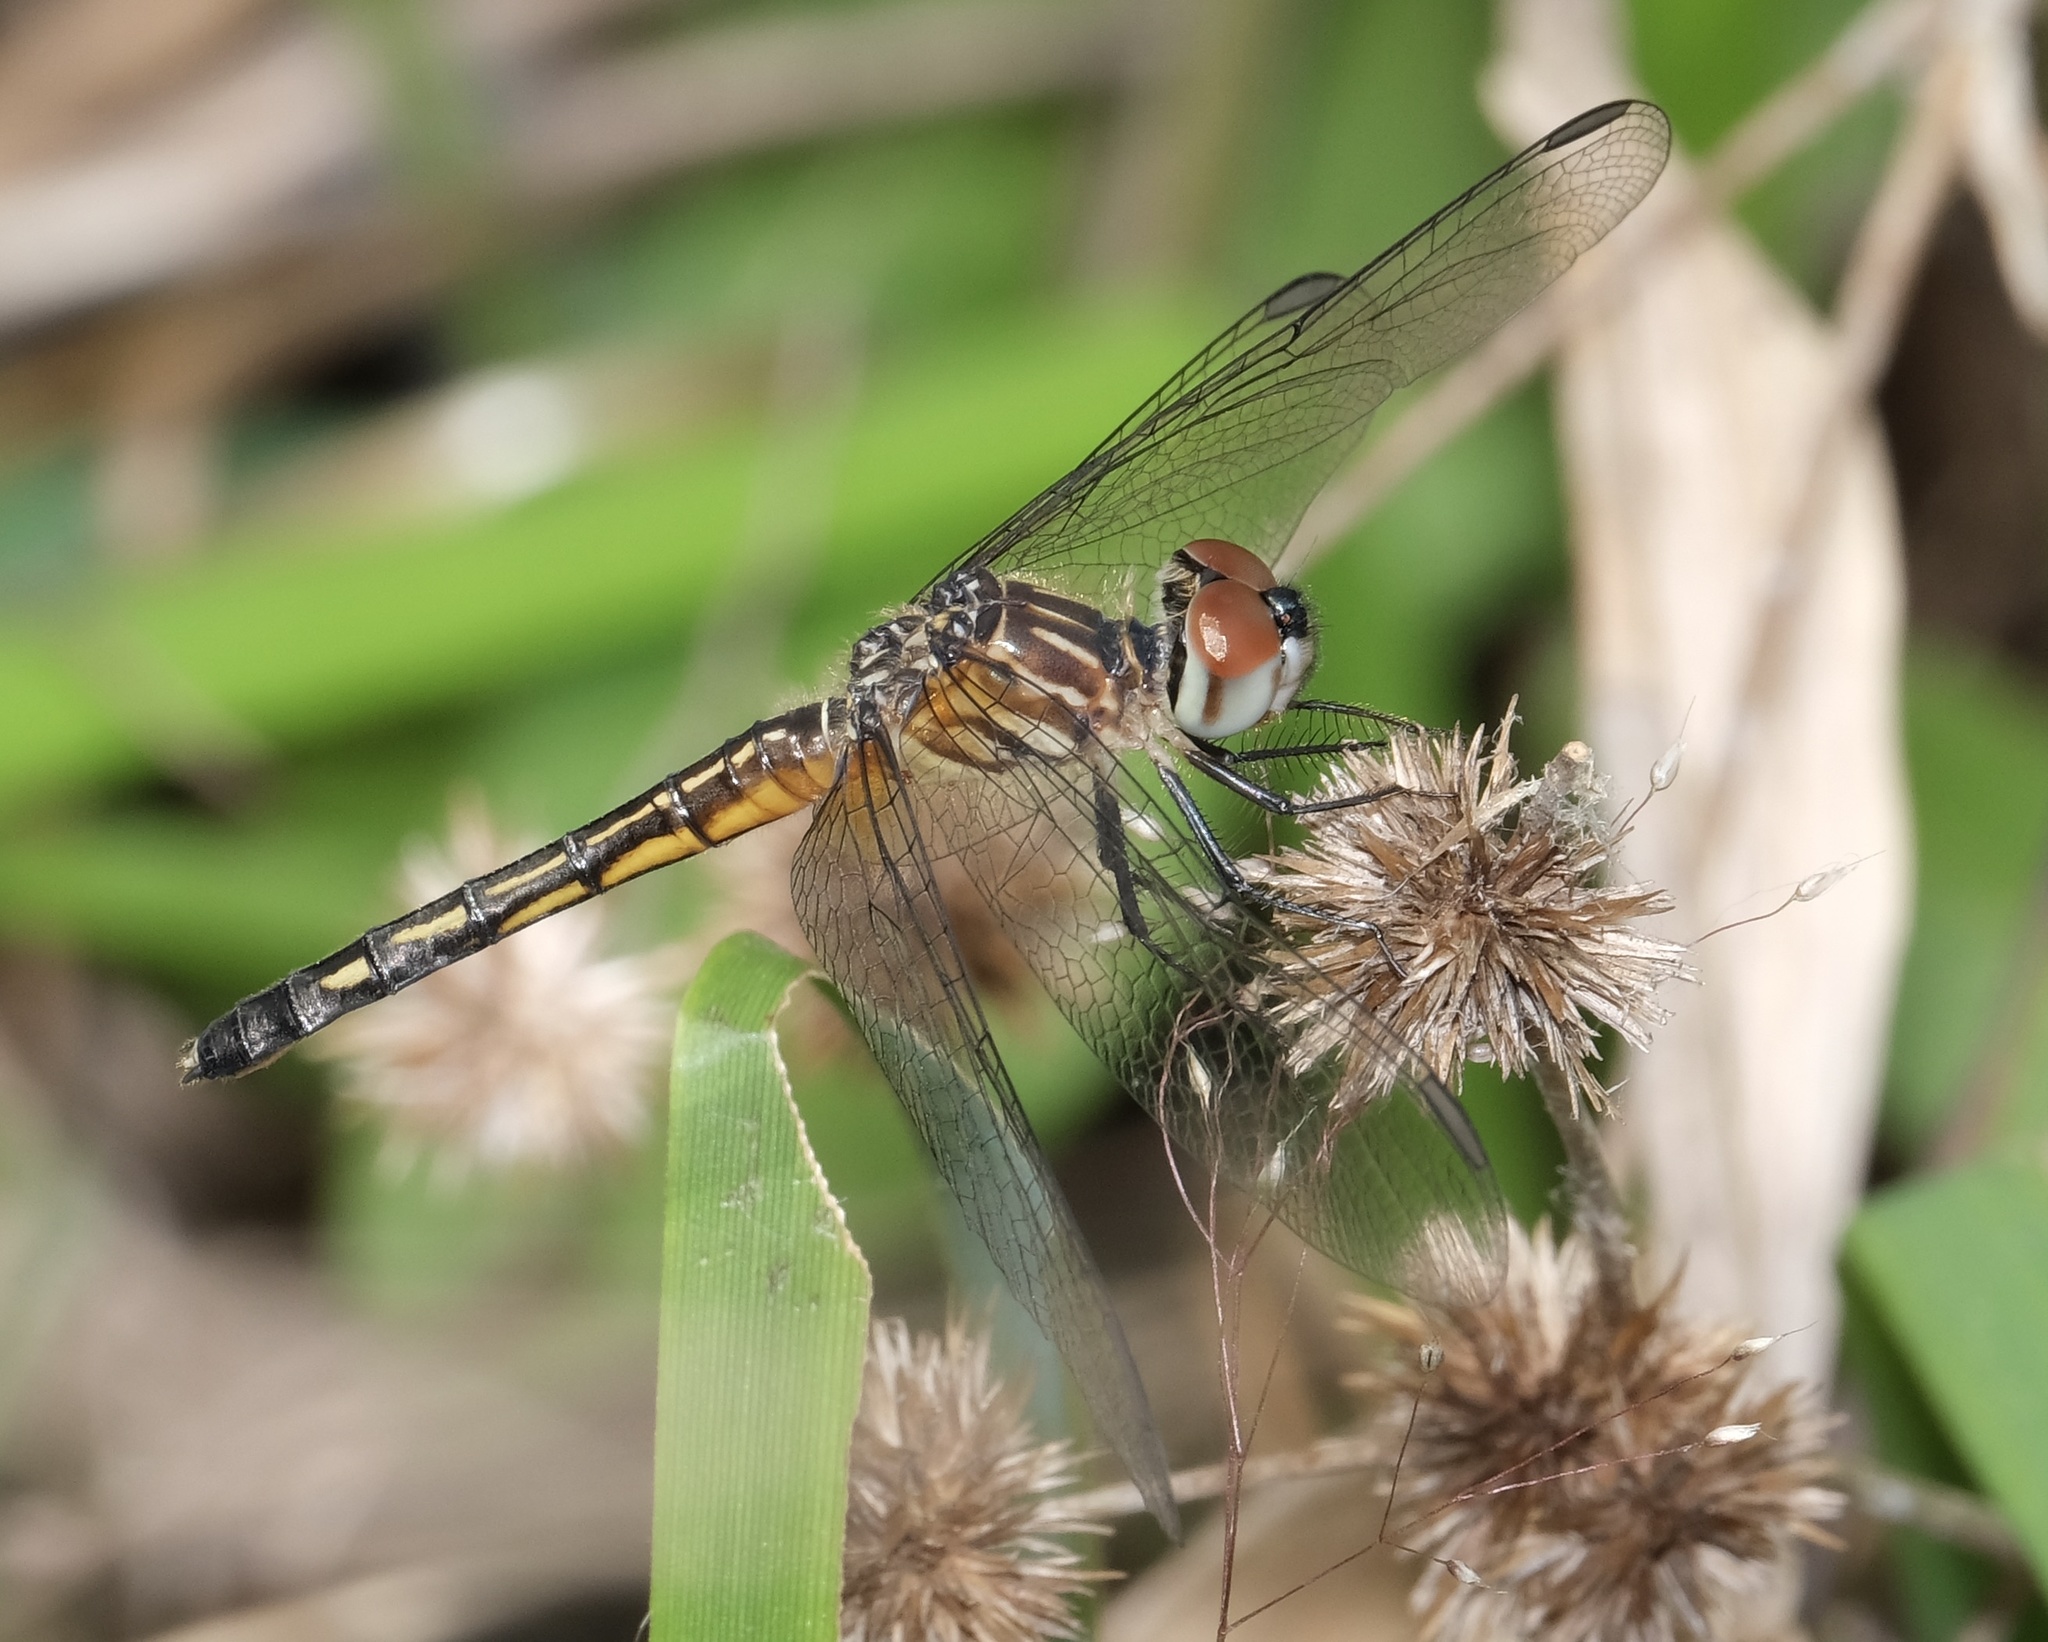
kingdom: Animalia
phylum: Arthropoda
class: Insecta
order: Odonata
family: Libellulidae
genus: Pachydiplax
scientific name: Pachydiplax longipennis
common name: Blue dasher
